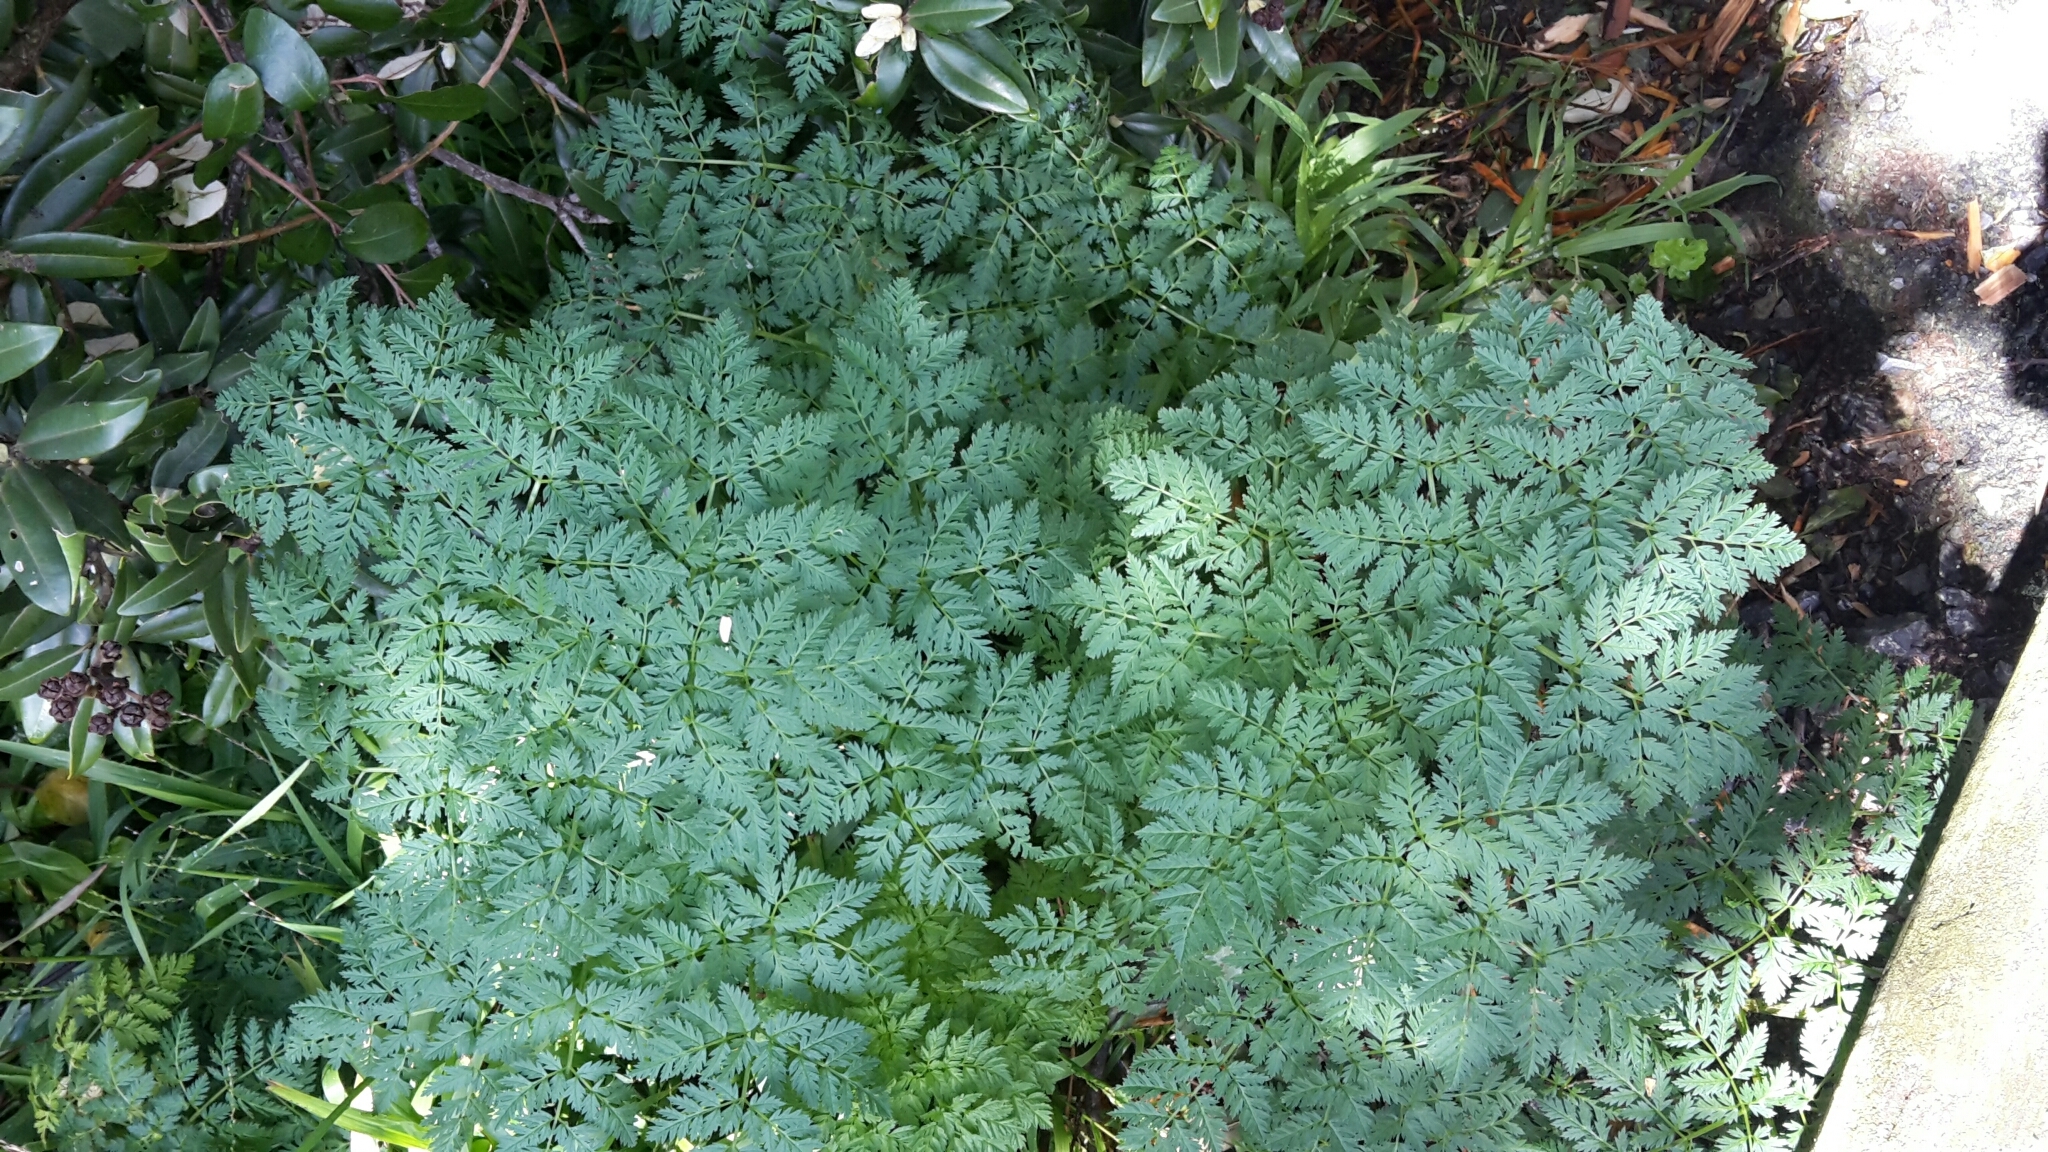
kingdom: Plantae
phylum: Tracheophyta
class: Magnoliopsida
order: Apiales
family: Apiaceae
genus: Conium
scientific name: Conium maculatum
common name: Hemlock
